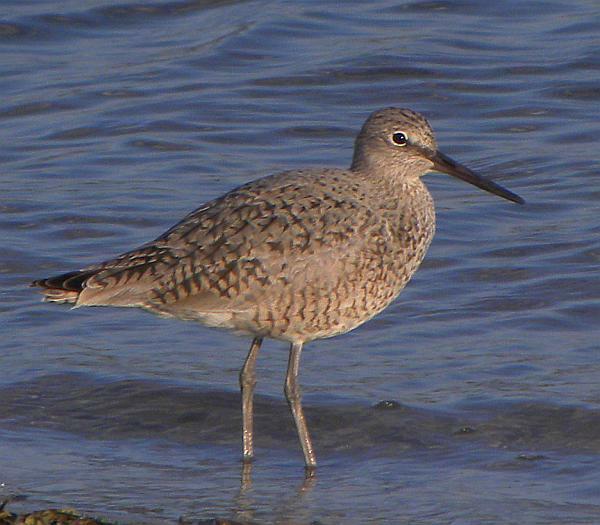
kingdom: Animalia
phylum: Chordata
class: Aves
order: Charadriiformes
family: Scolopacidae
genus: Tringa
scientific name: Tringa semipalmata
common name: Willet
